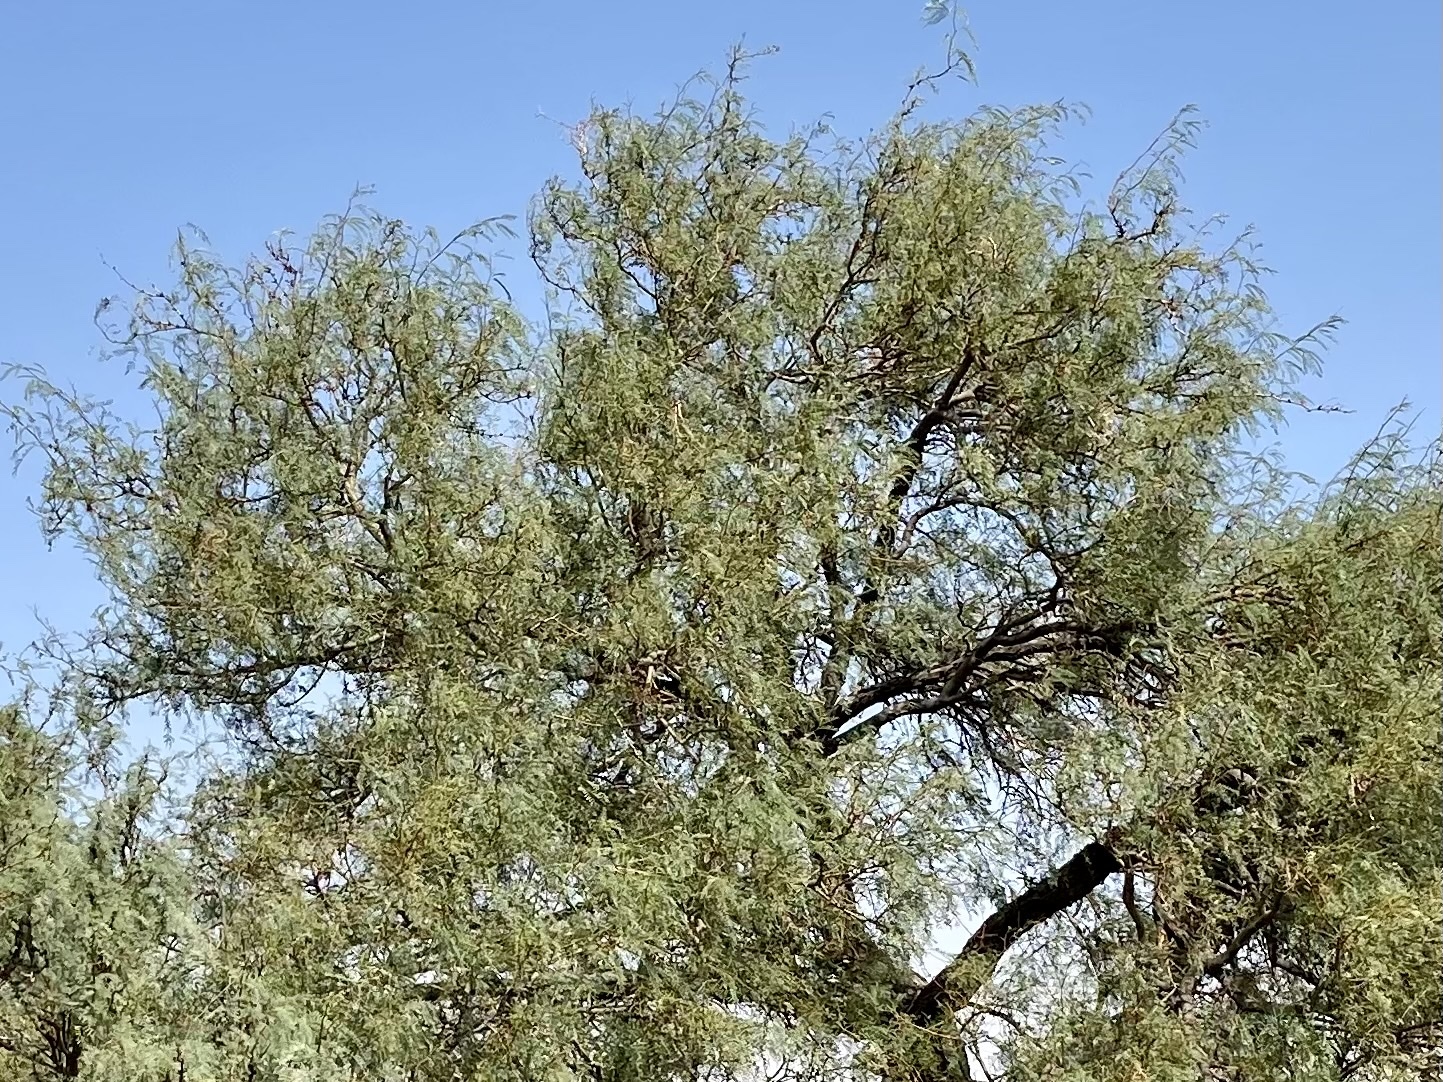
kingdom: Plantae
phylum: Tracheophyta
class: Magnoliopsida
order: Fabales
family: Fabaceae
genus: Prosopis
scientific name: Prosopis glandulosa
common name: Honey mesquite
